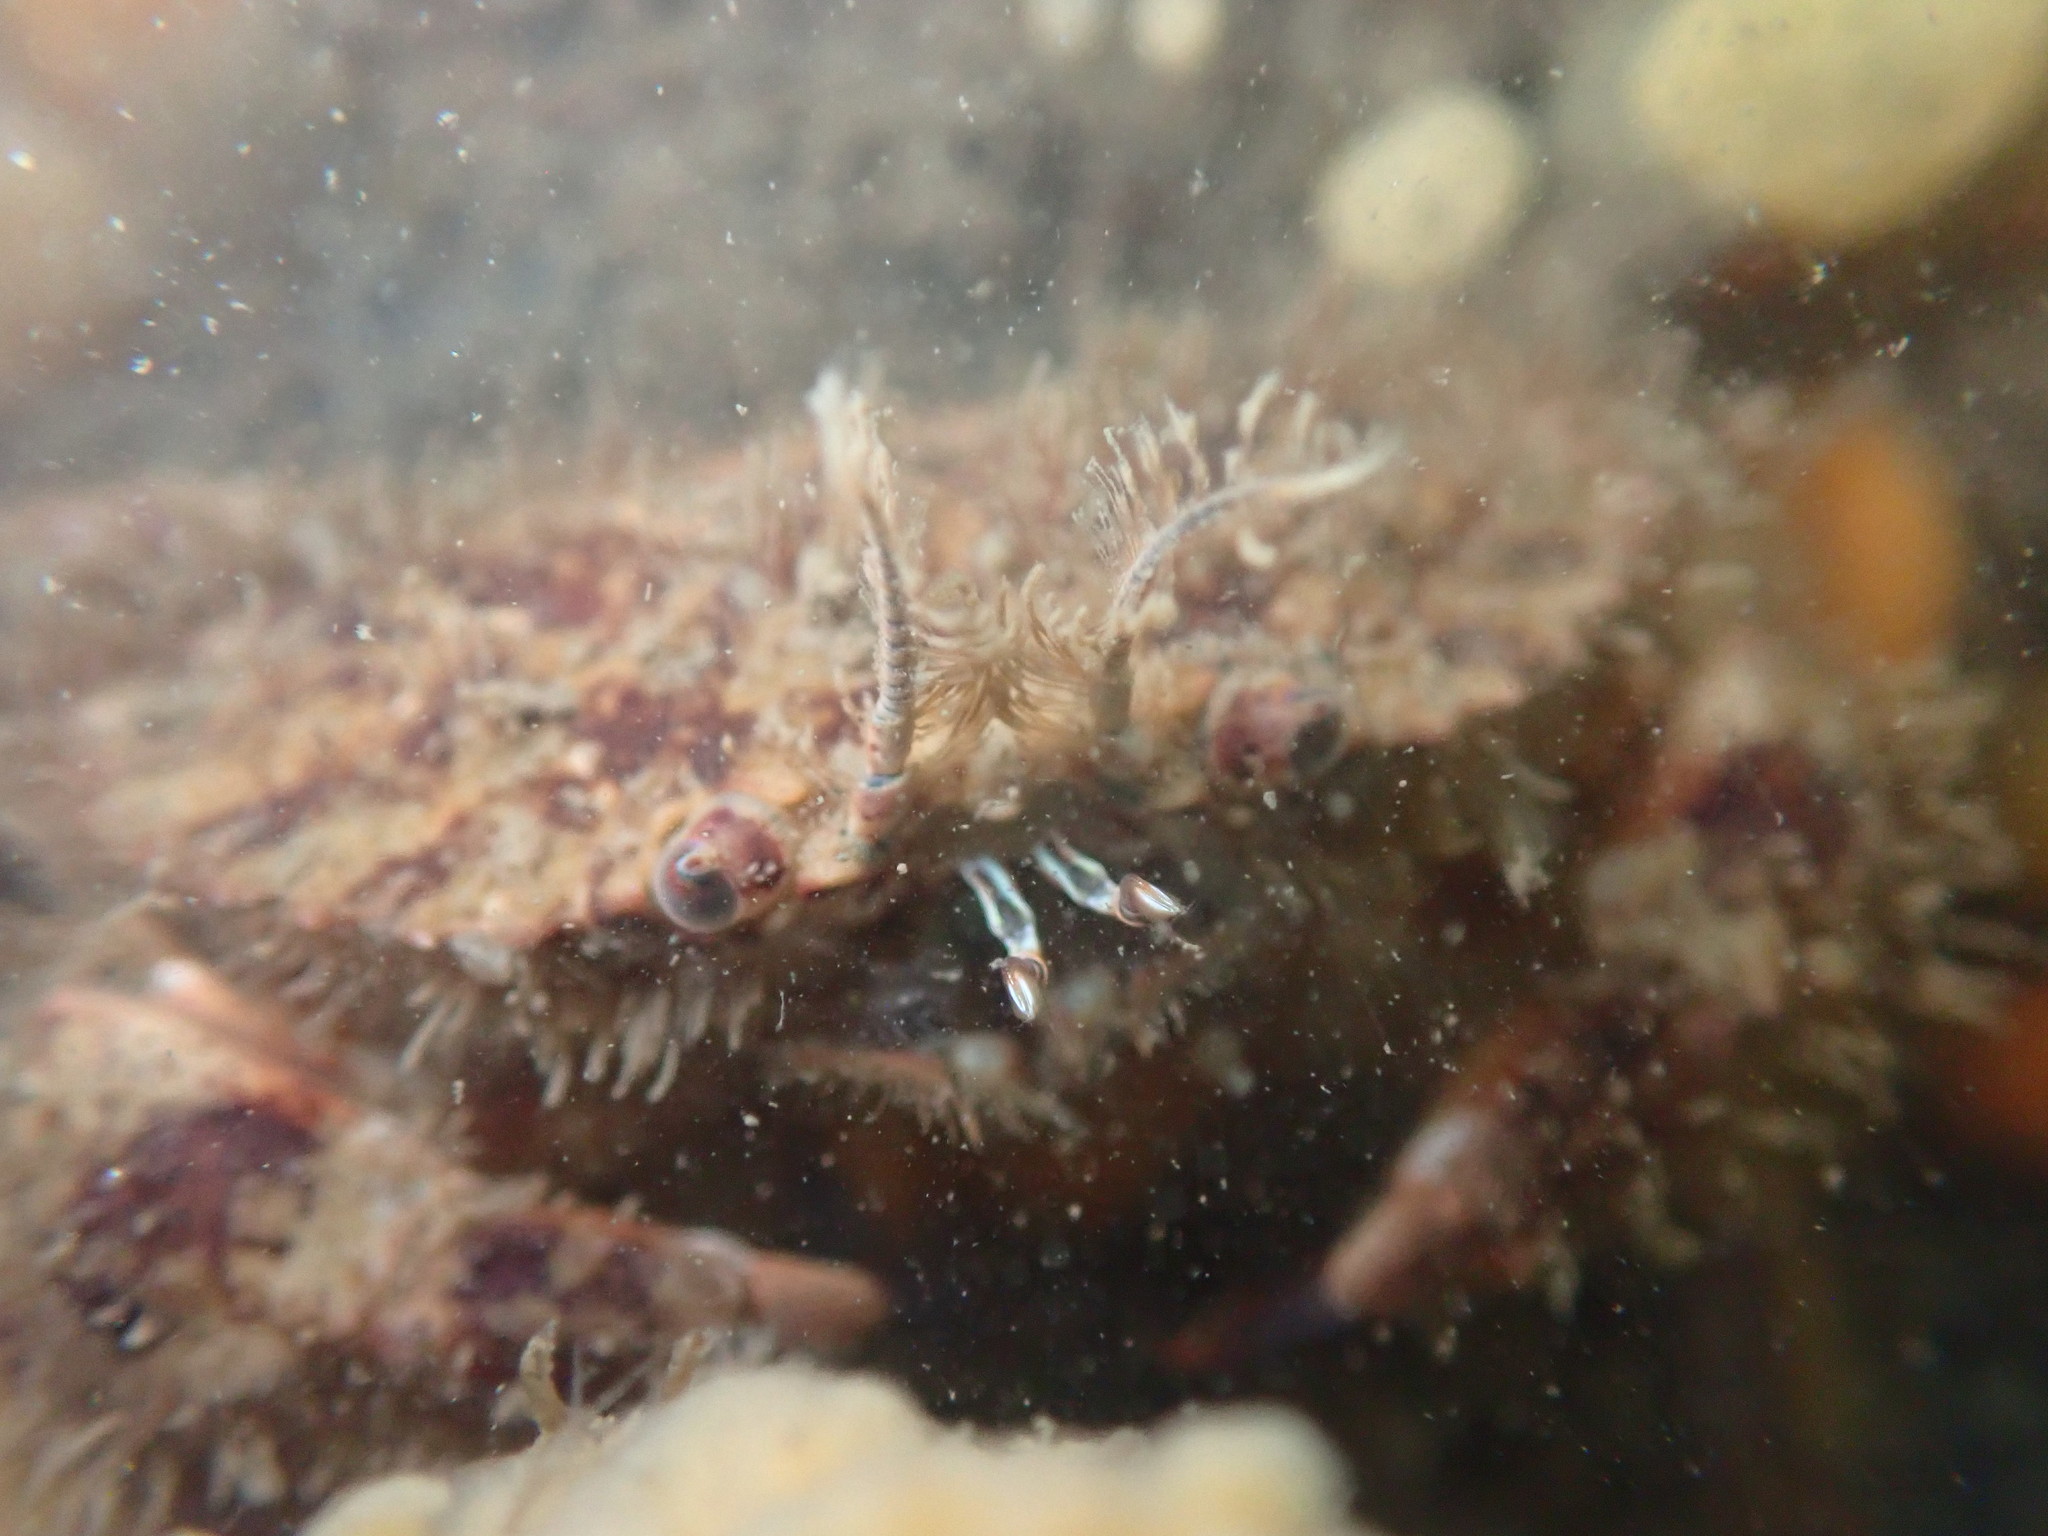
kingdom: Animalia
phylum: Arthropoda
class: Malacostraca
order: Decapoda
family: Cancridae
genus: Romaleon
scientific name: Romaleon antennarium
